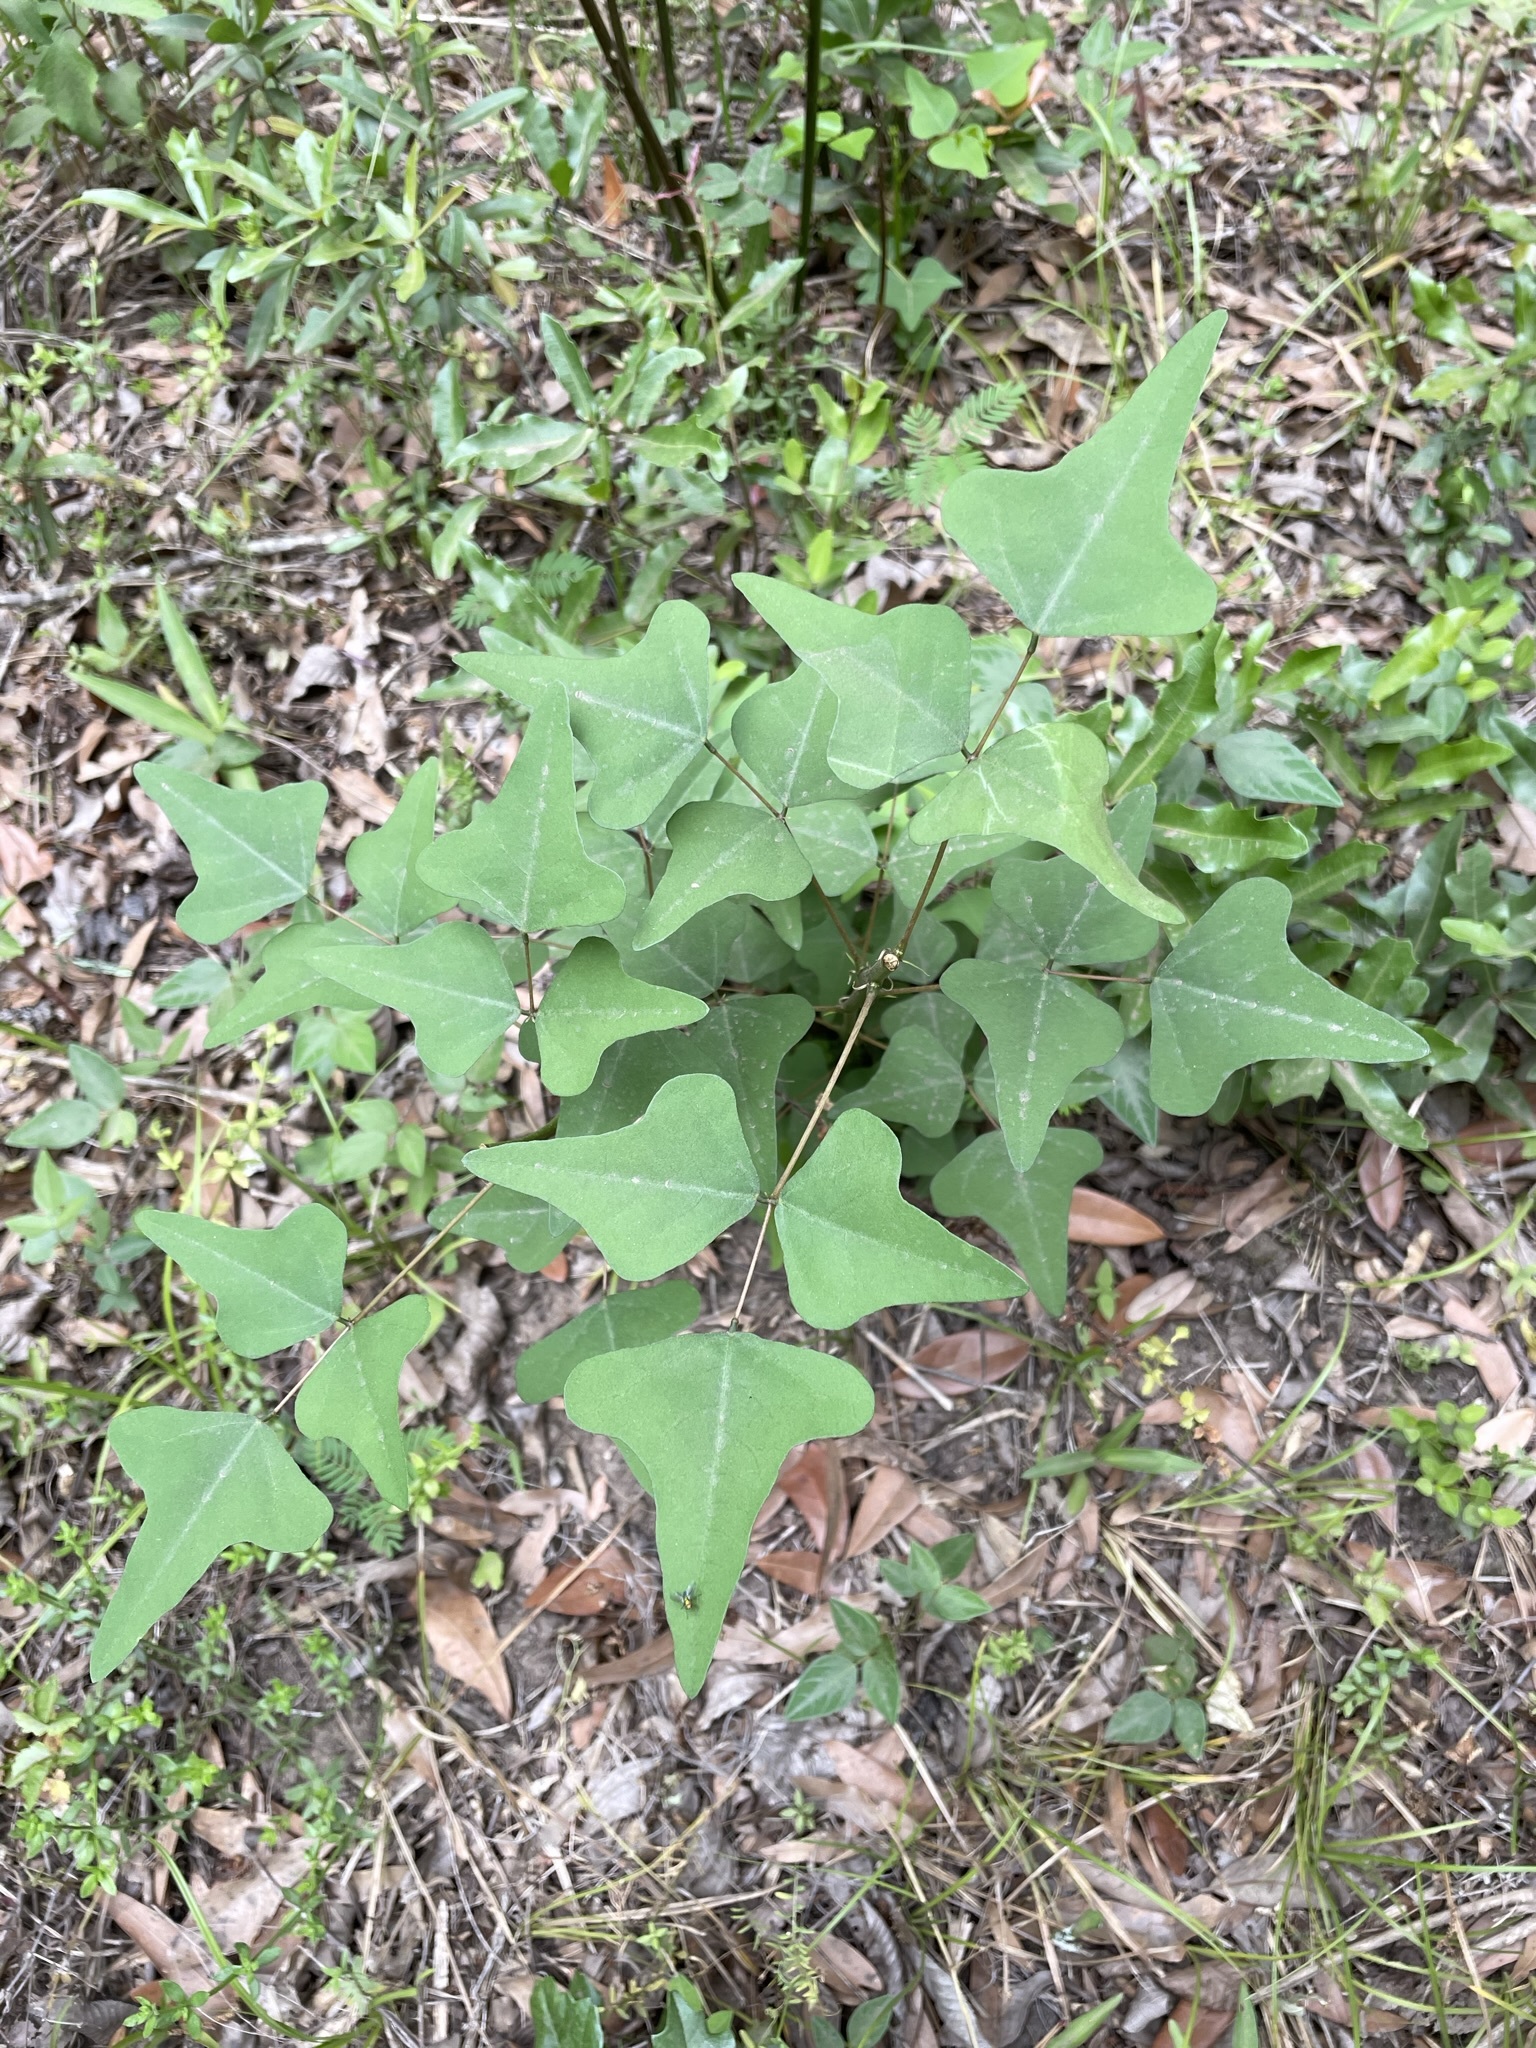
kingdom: Plantae
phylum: Tracheophyta
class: Magnoliopsida
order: Fabales
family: Fabaceae
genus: Erythrina
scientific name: Erythrina herbacea
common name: Coral-bean
